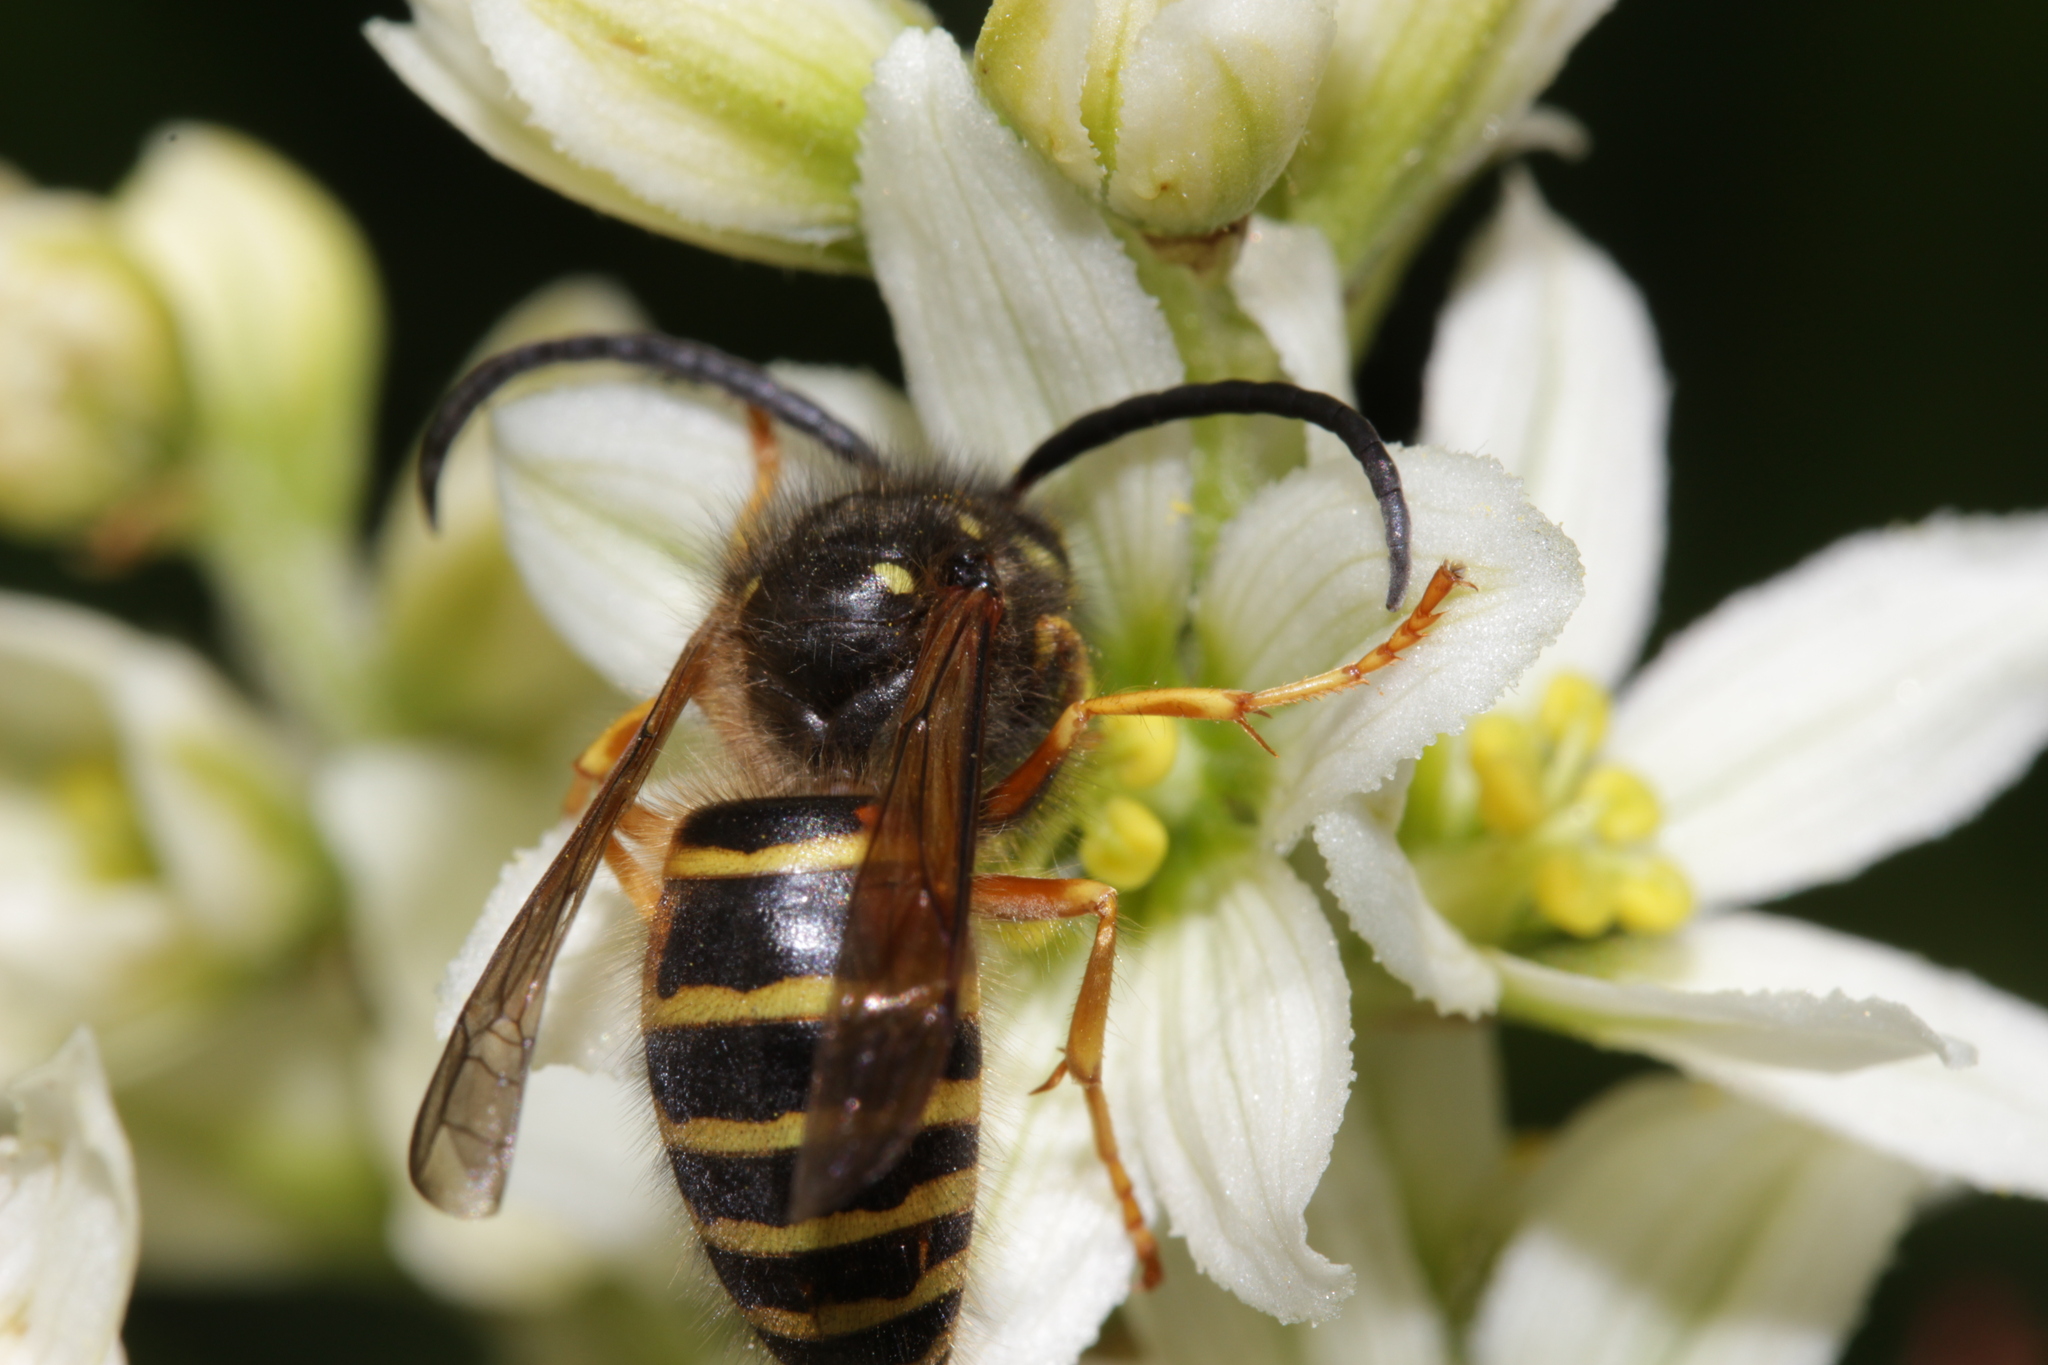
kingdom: Animalia
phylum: Arthropoda
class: Insecta
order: Hymenoptera
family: Vespidae
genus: Dolichovespula
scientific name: Dolichovespula norwegica
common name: Norwegian wasp
